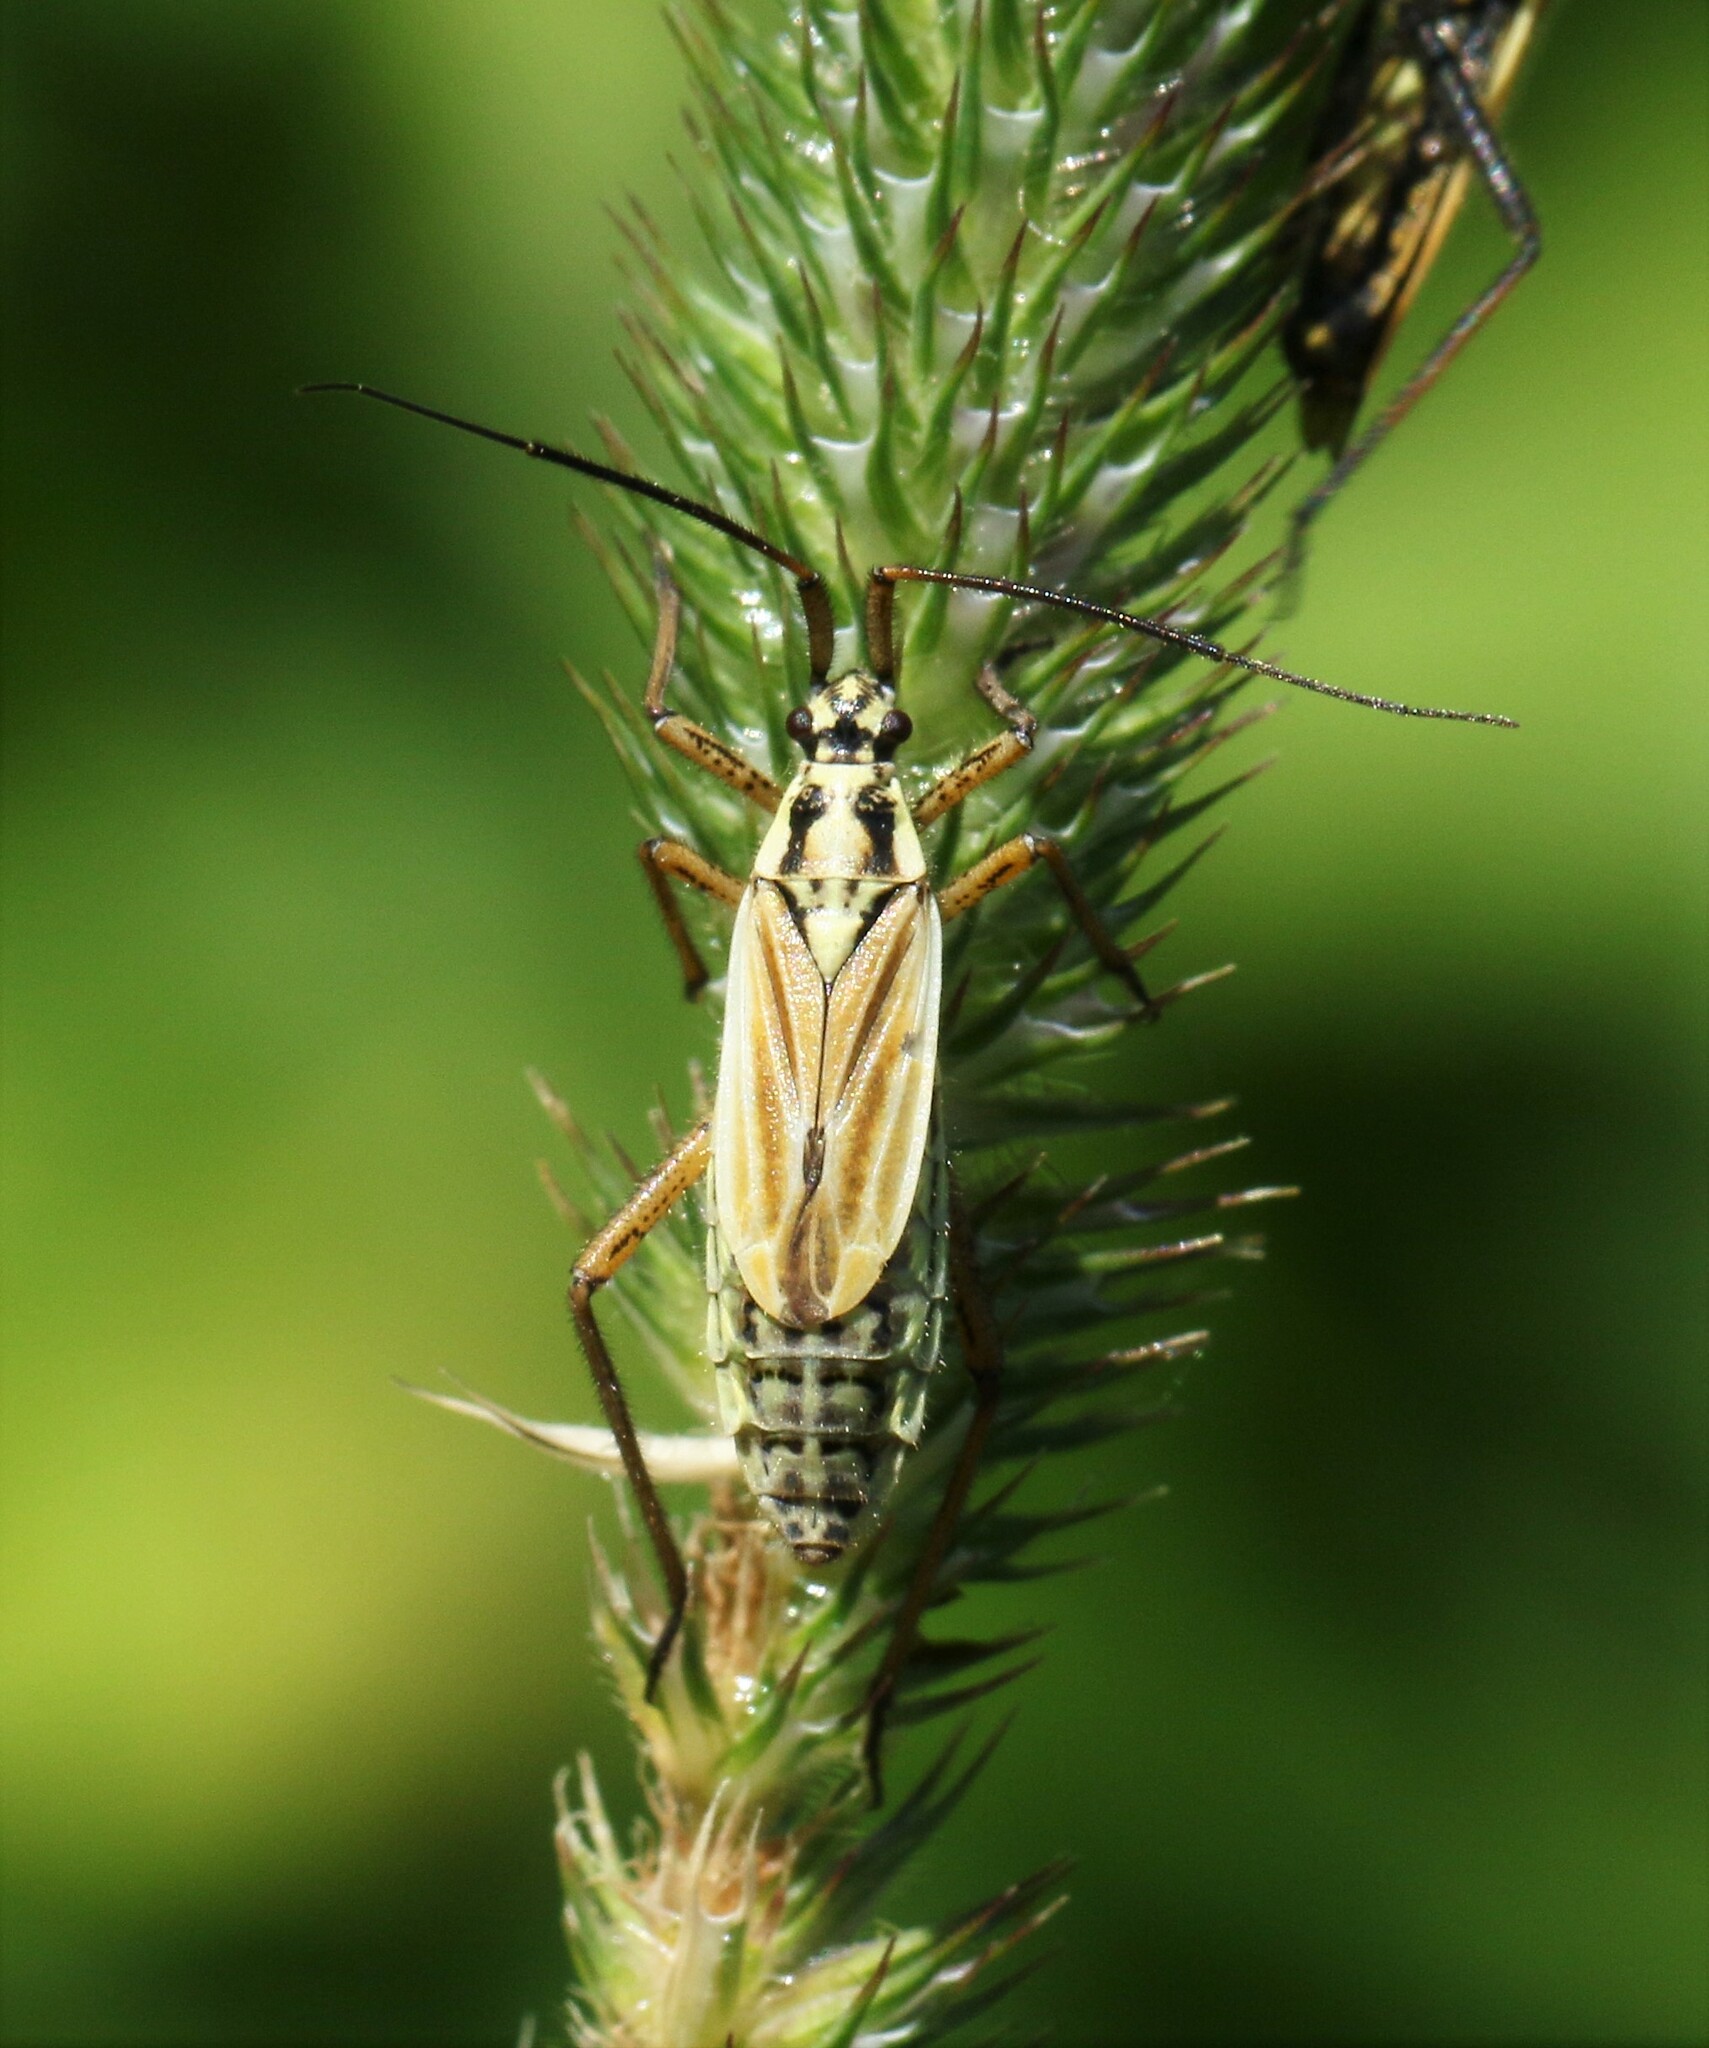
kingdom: Animalia
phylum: Arthropoda
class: Insecta
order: Hemiptera
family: Miridae
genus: Leptopterna
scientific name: Leptopterna dolabrata
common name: Meadow plant bug
